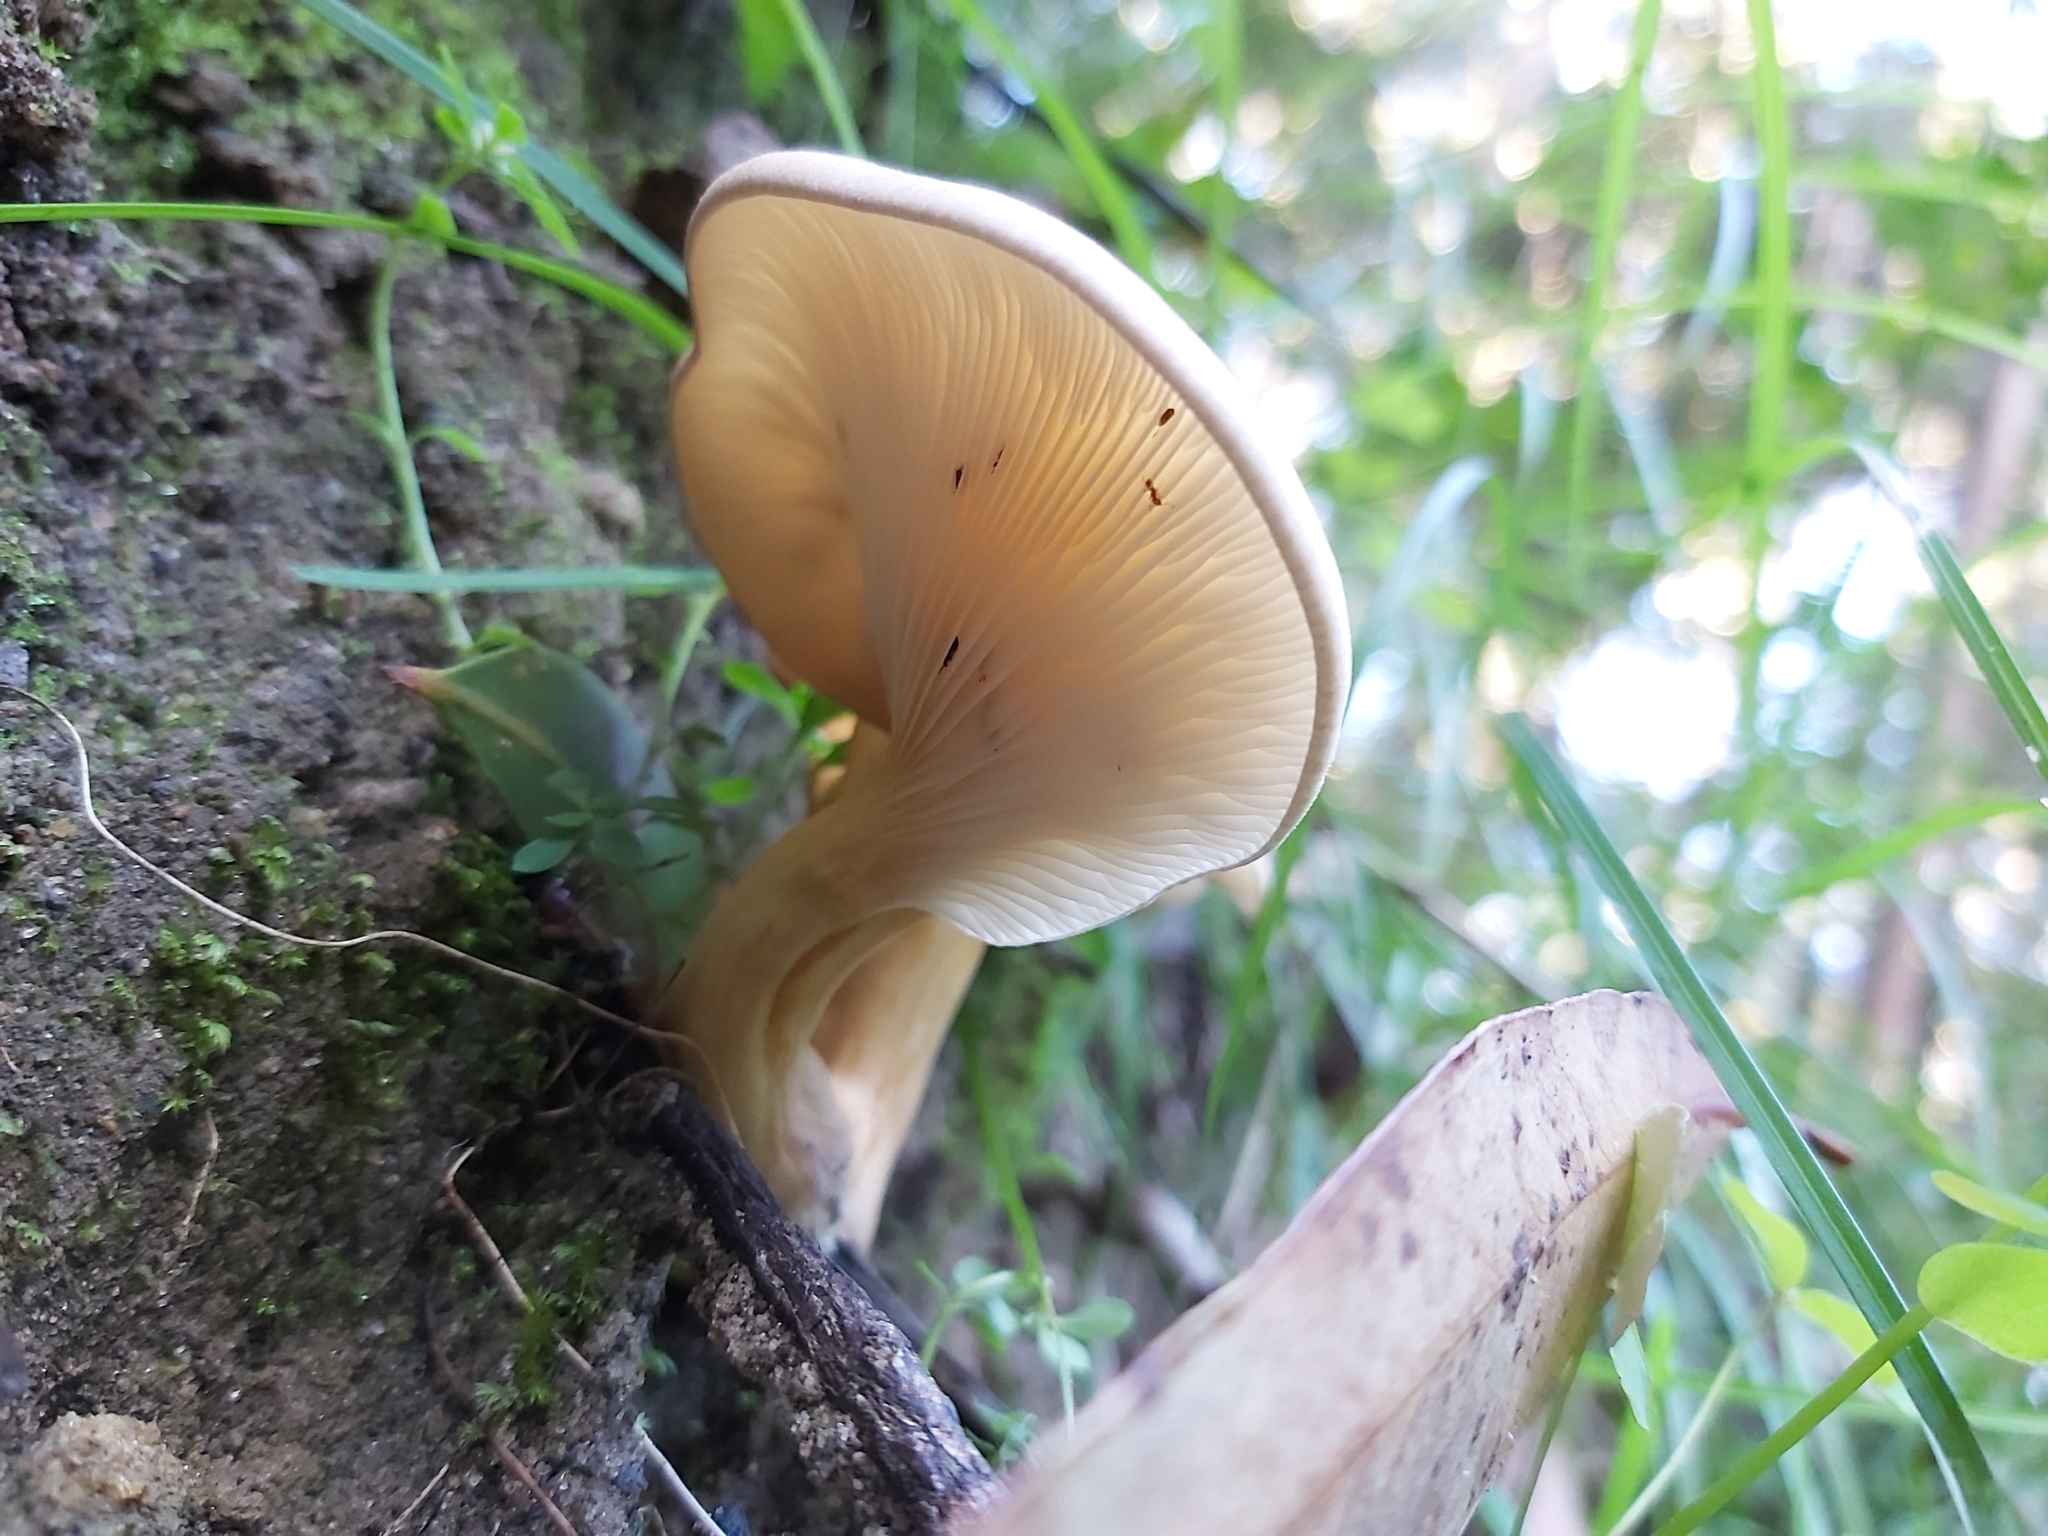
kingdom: Fungi
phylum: Basidiomycota
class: Agaricomycetes
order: Agaricales
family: Omphalotaceae
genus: Omphalotus
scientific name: Omphalotus nidiformis
